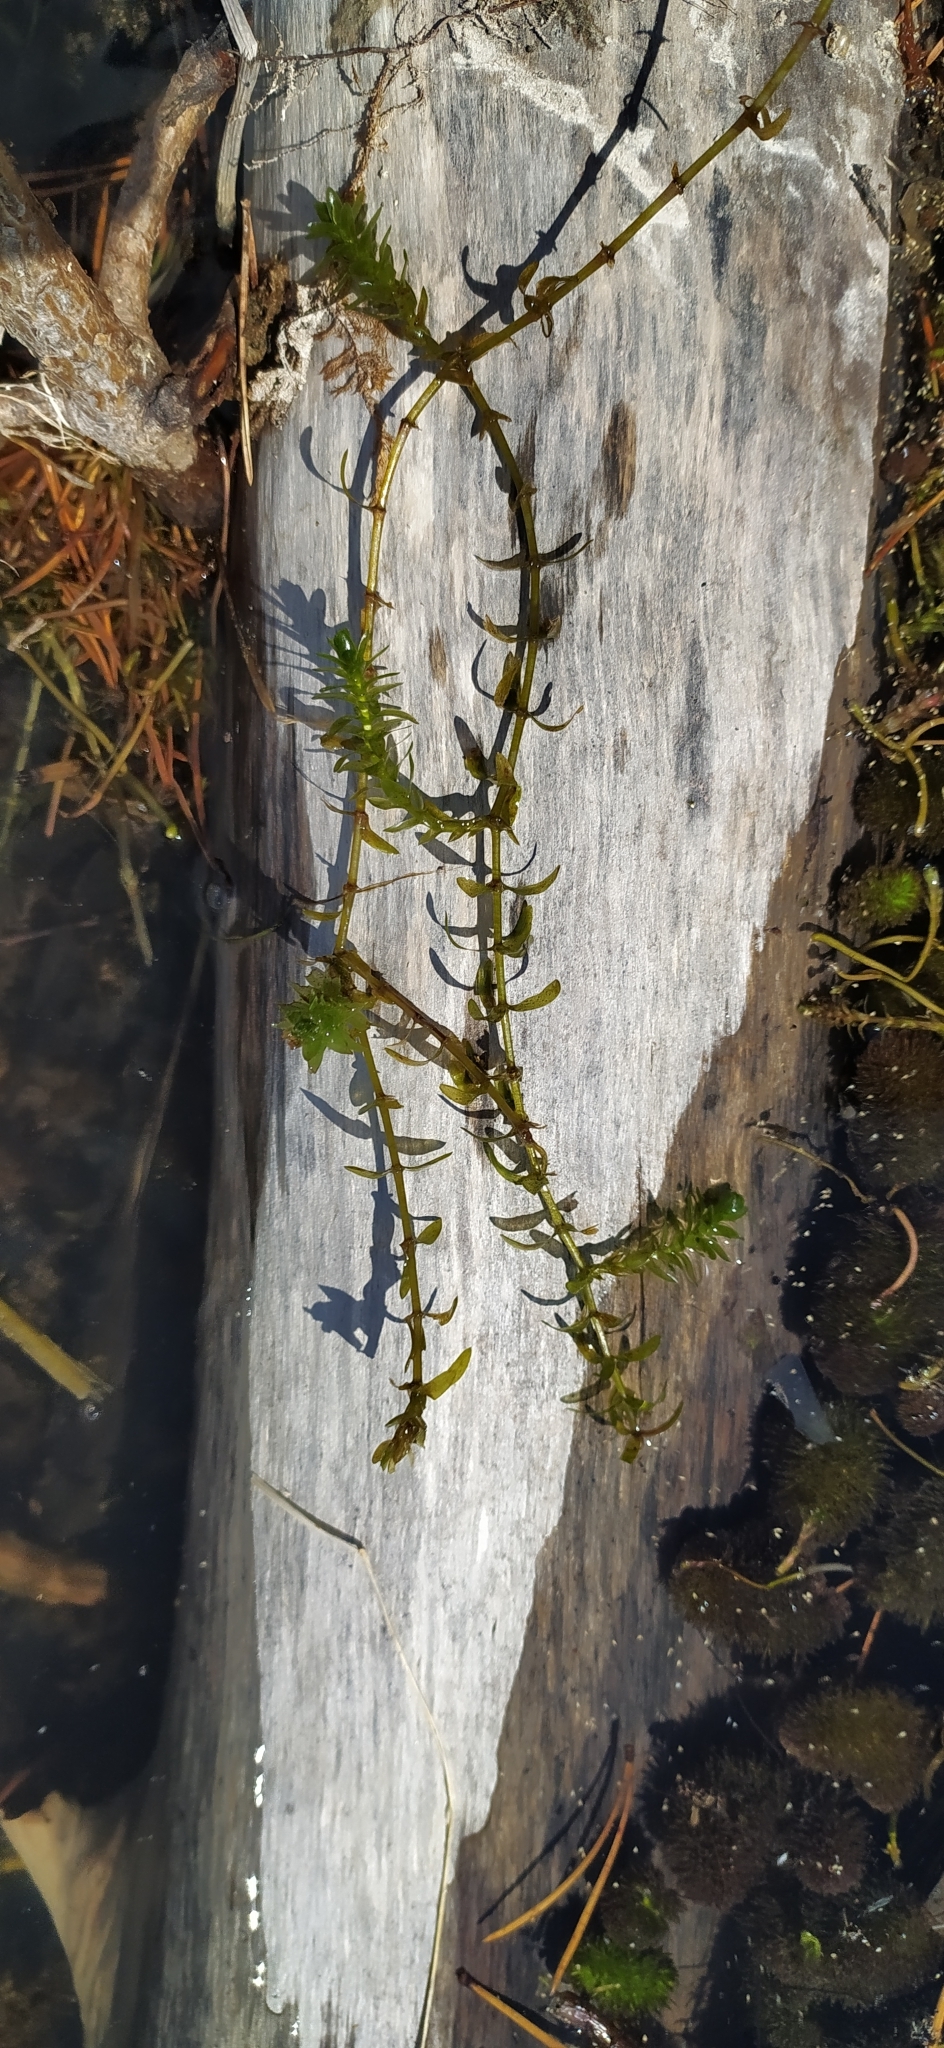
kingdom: Plantae
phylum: Tracheophyta
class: Liliopsida
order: Alismatales
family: Hydrocharitaceae
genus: Elodea
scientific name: Elodea canadensis
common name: Canadian waterweed
